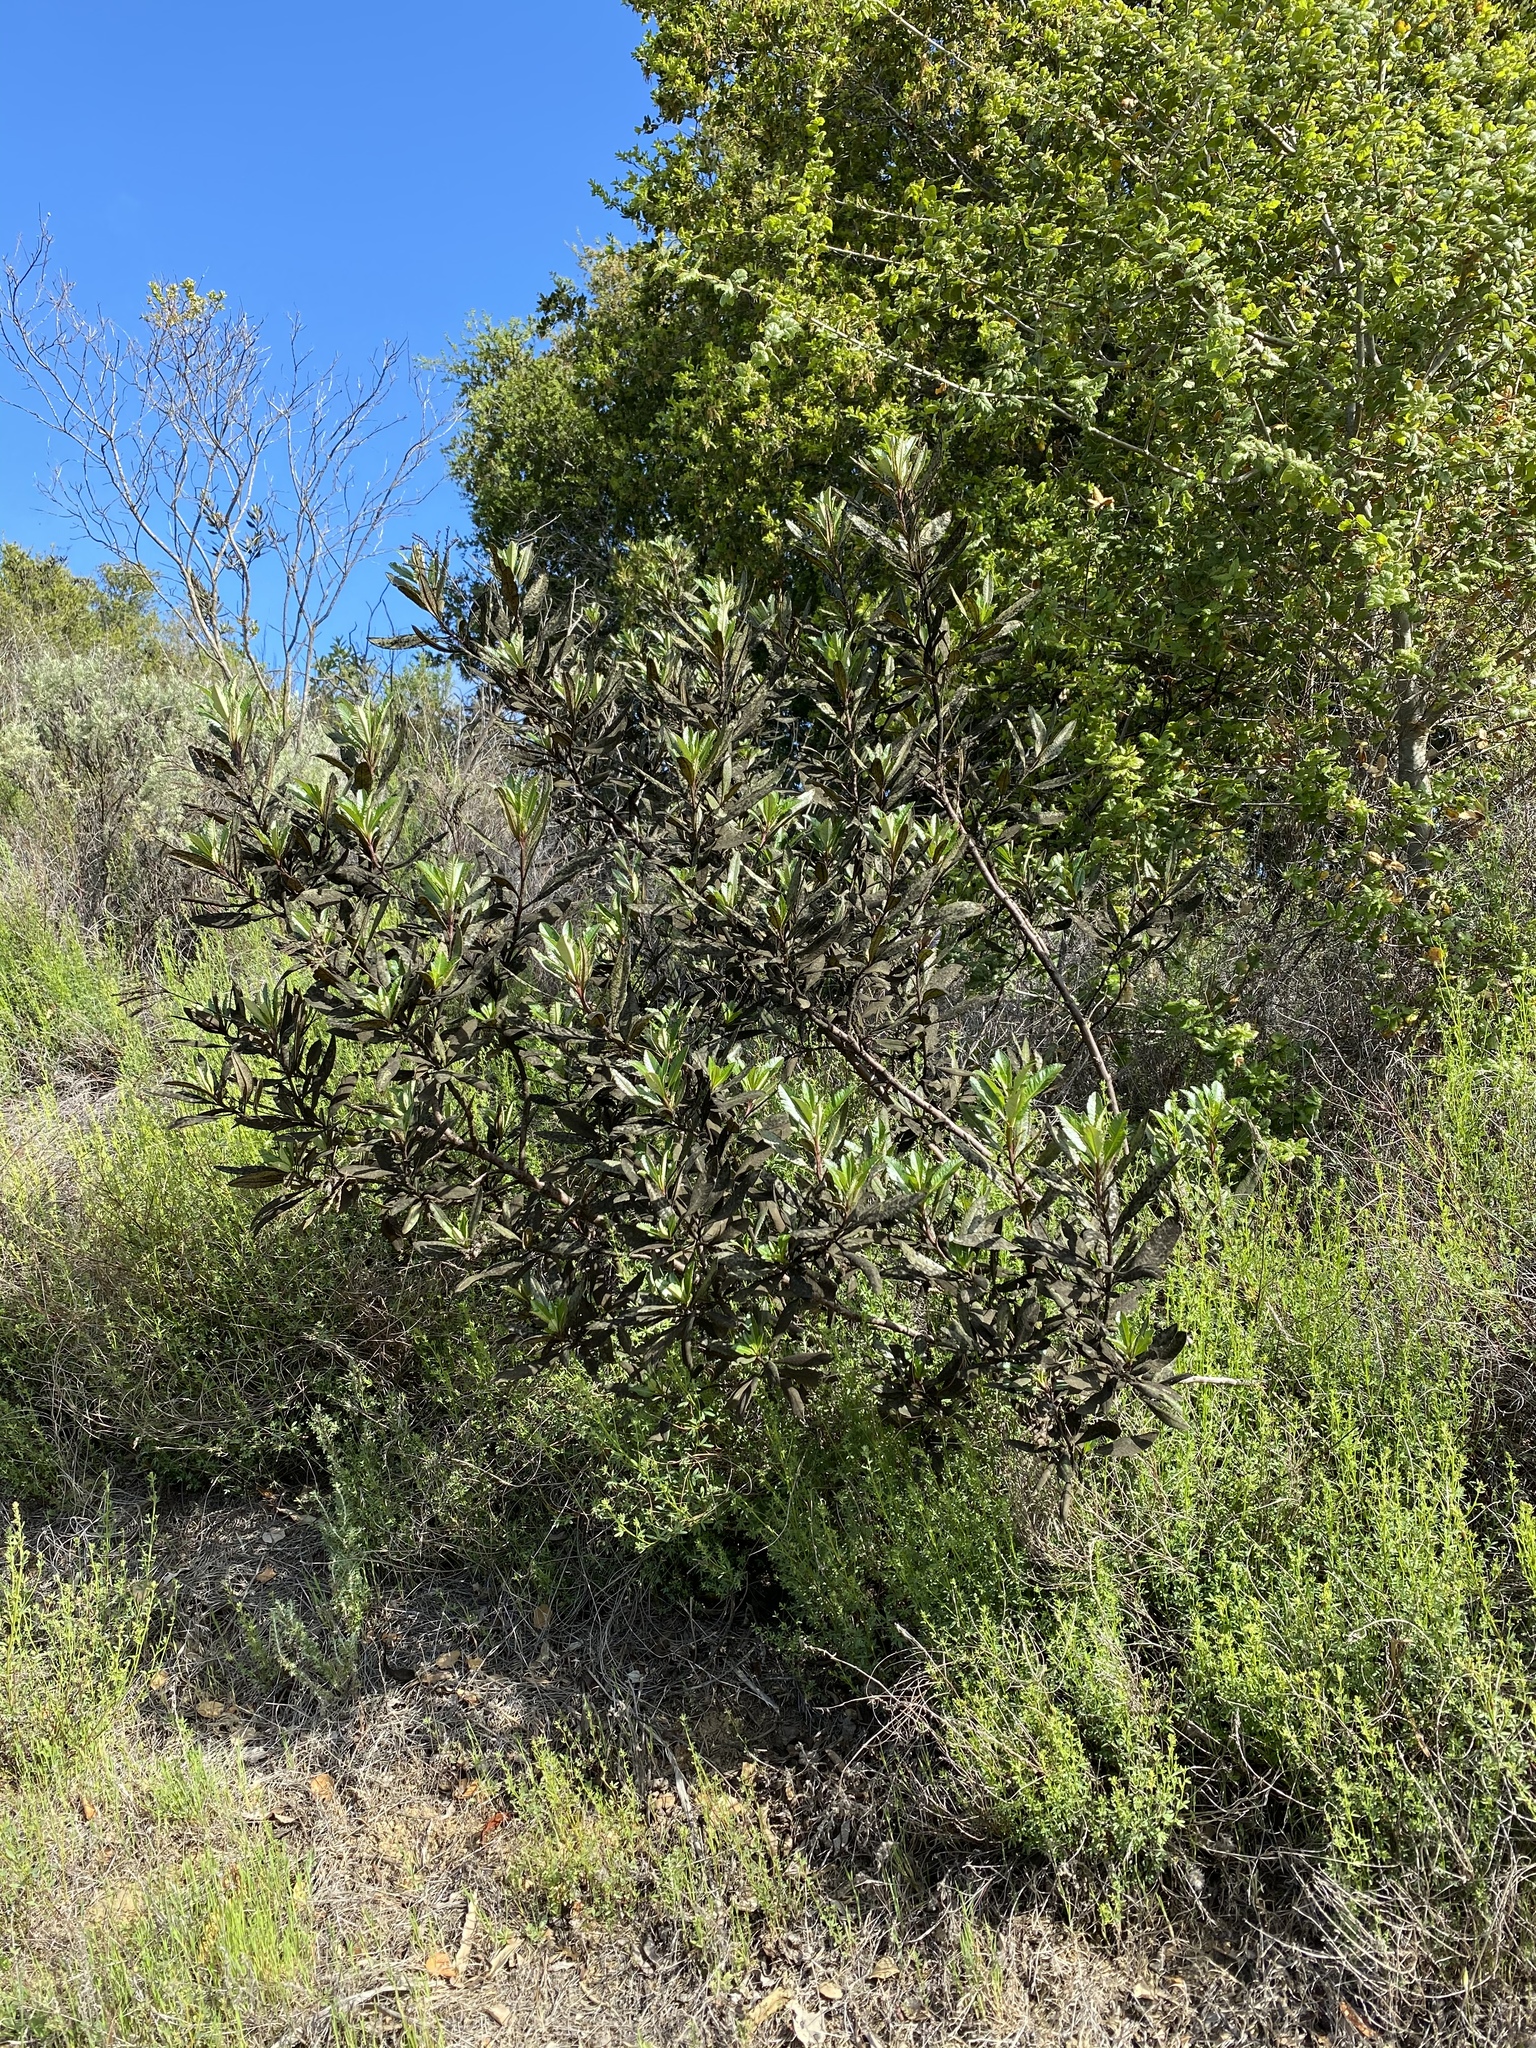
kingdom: Plantae
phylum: Tracheophyta
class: Magnoliopsida
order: Boraginales
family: Namaceae
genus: Eriodictyon
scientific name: Eriodictyon californicum
